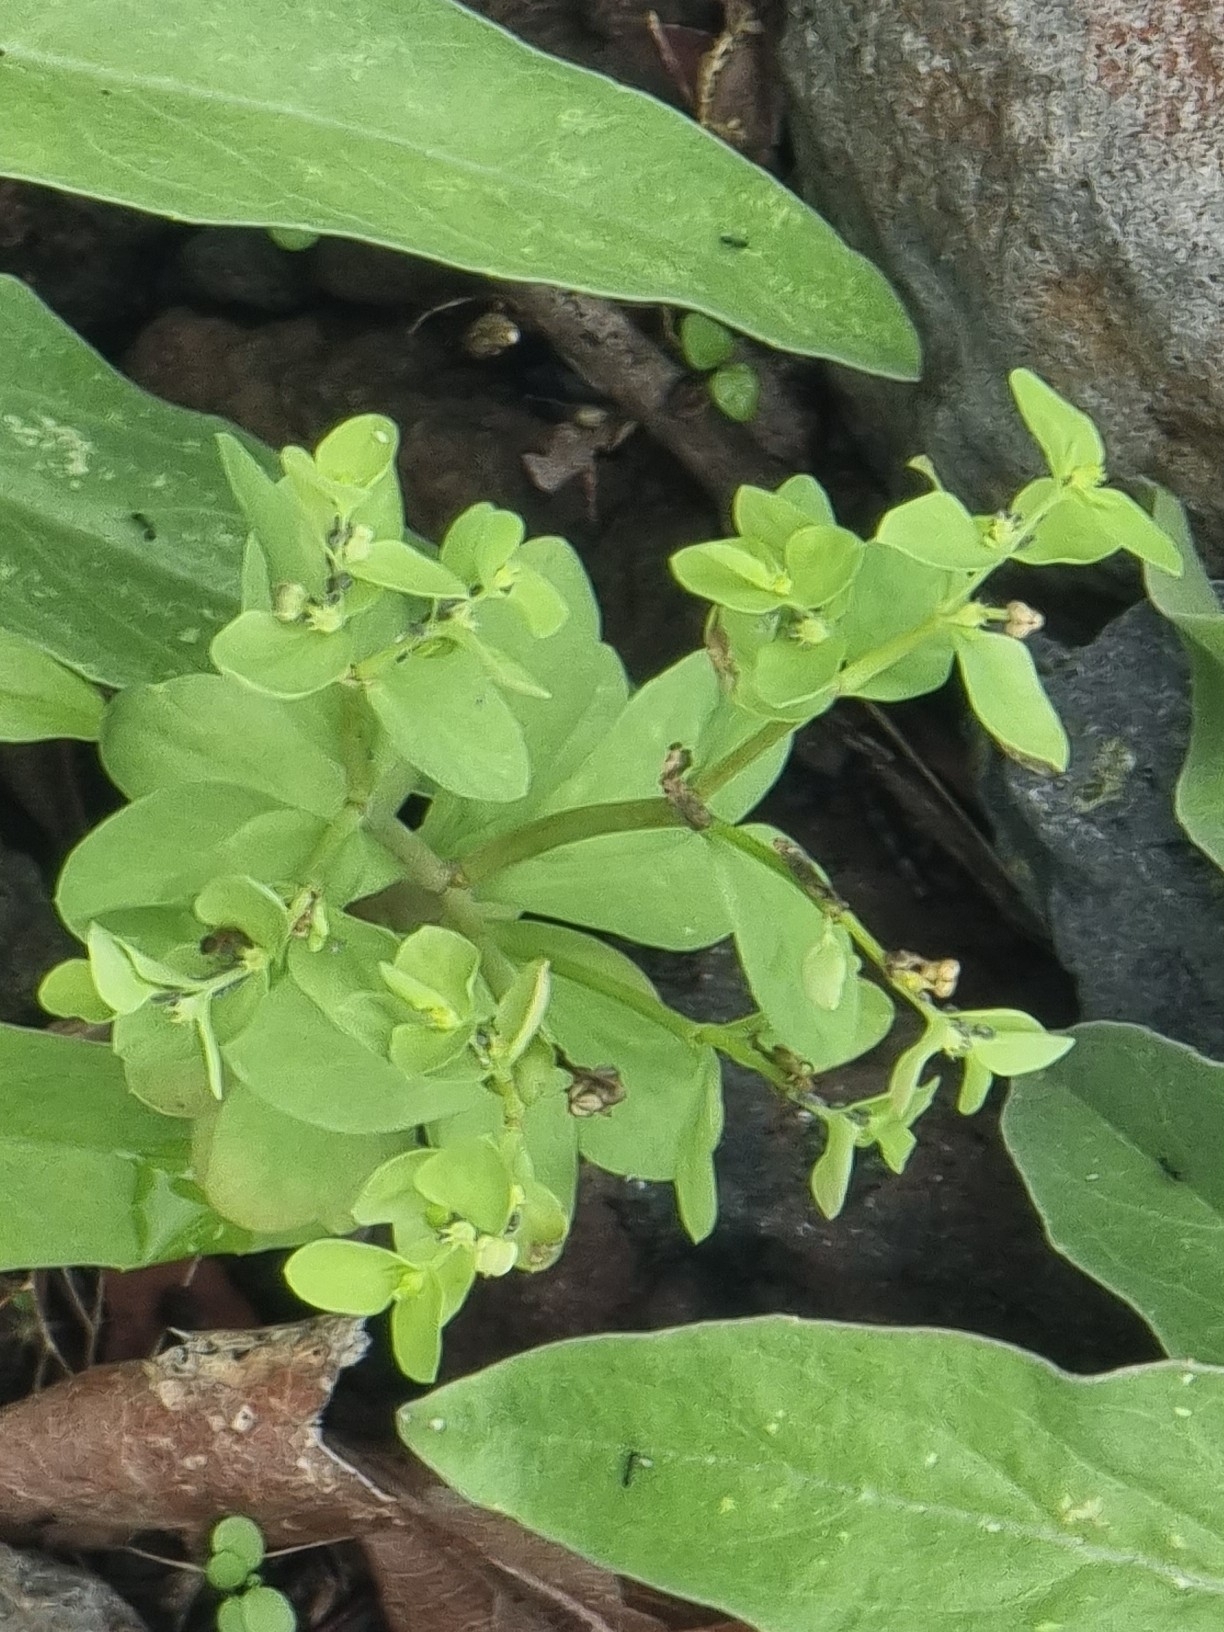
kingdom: Plantae
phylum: Tracheophyta
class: Magnoliopsida
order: Malpighiales
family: Euphorbiaceae
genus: Euphorbia
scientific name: Euphorbia peplus
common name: Petty spurge
